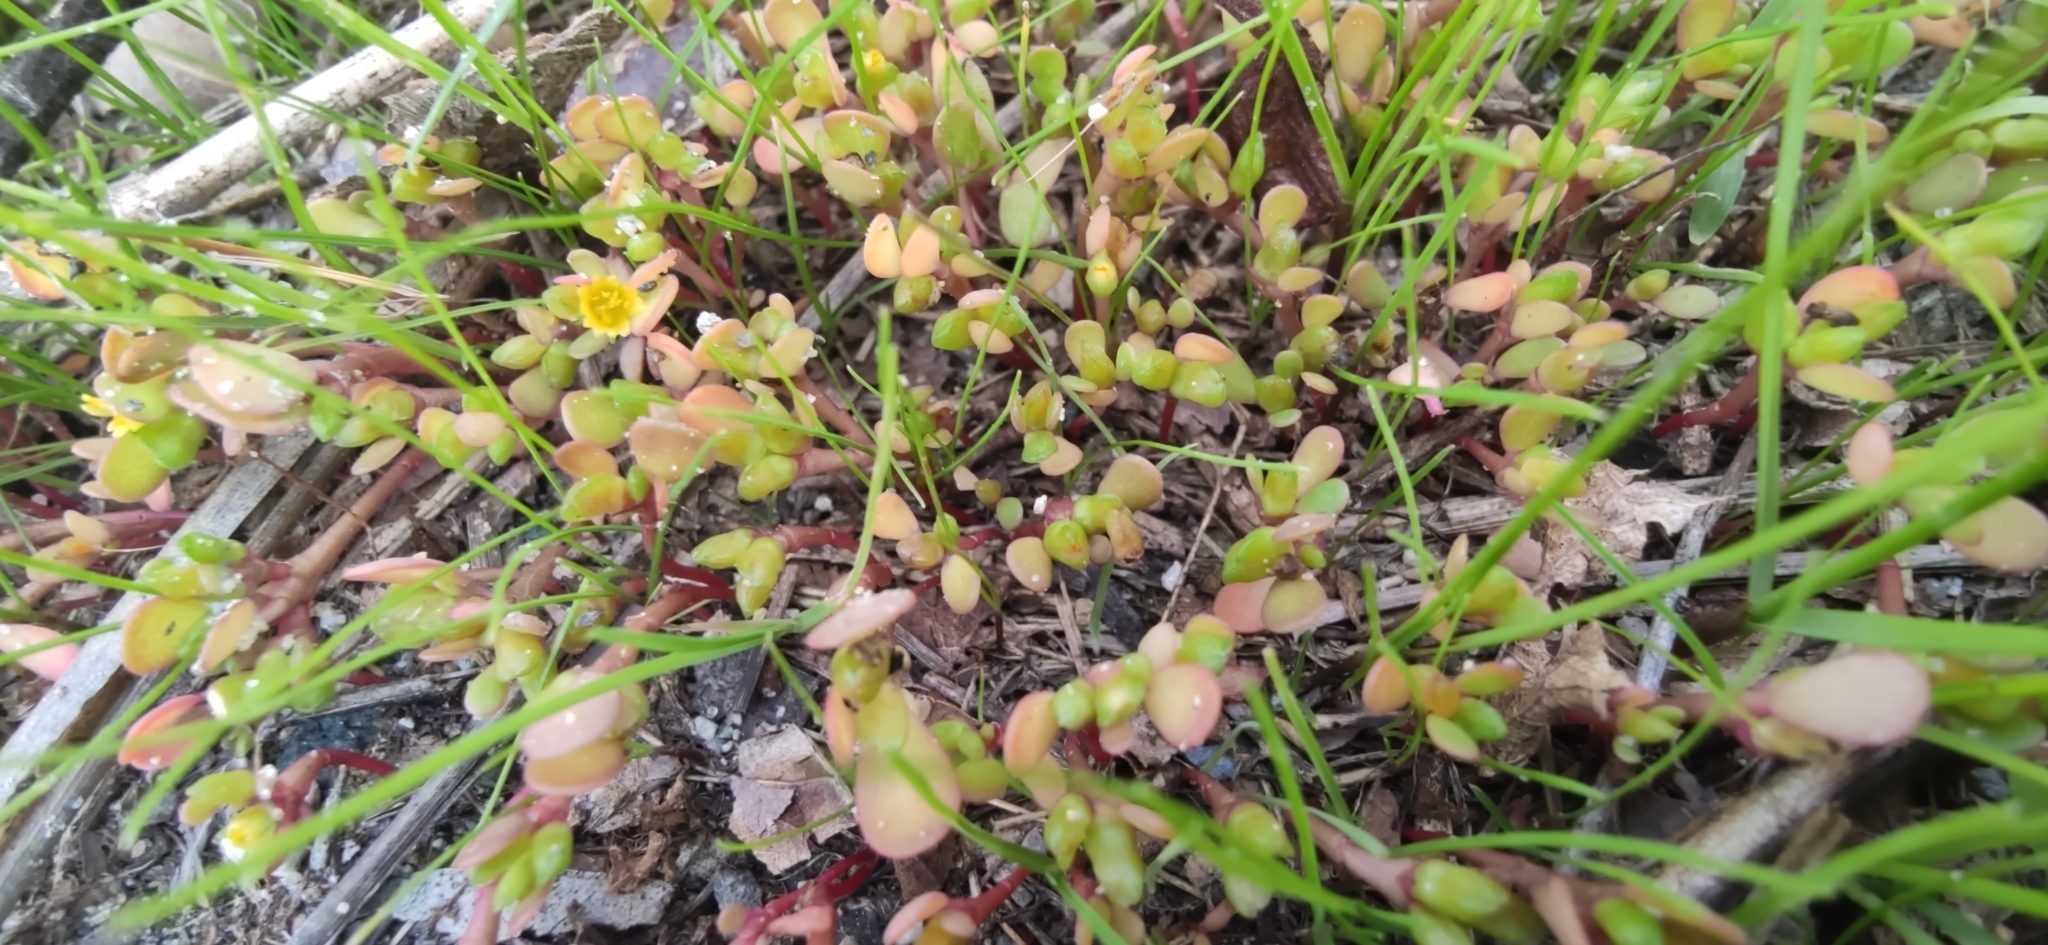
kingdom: Plantae
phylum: Tracheophyta
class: Magnoliopsida
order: Caryophyllales
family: Portulacaceae
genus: Portulaca
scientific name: Portulaca oleracea
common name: Common purslane
